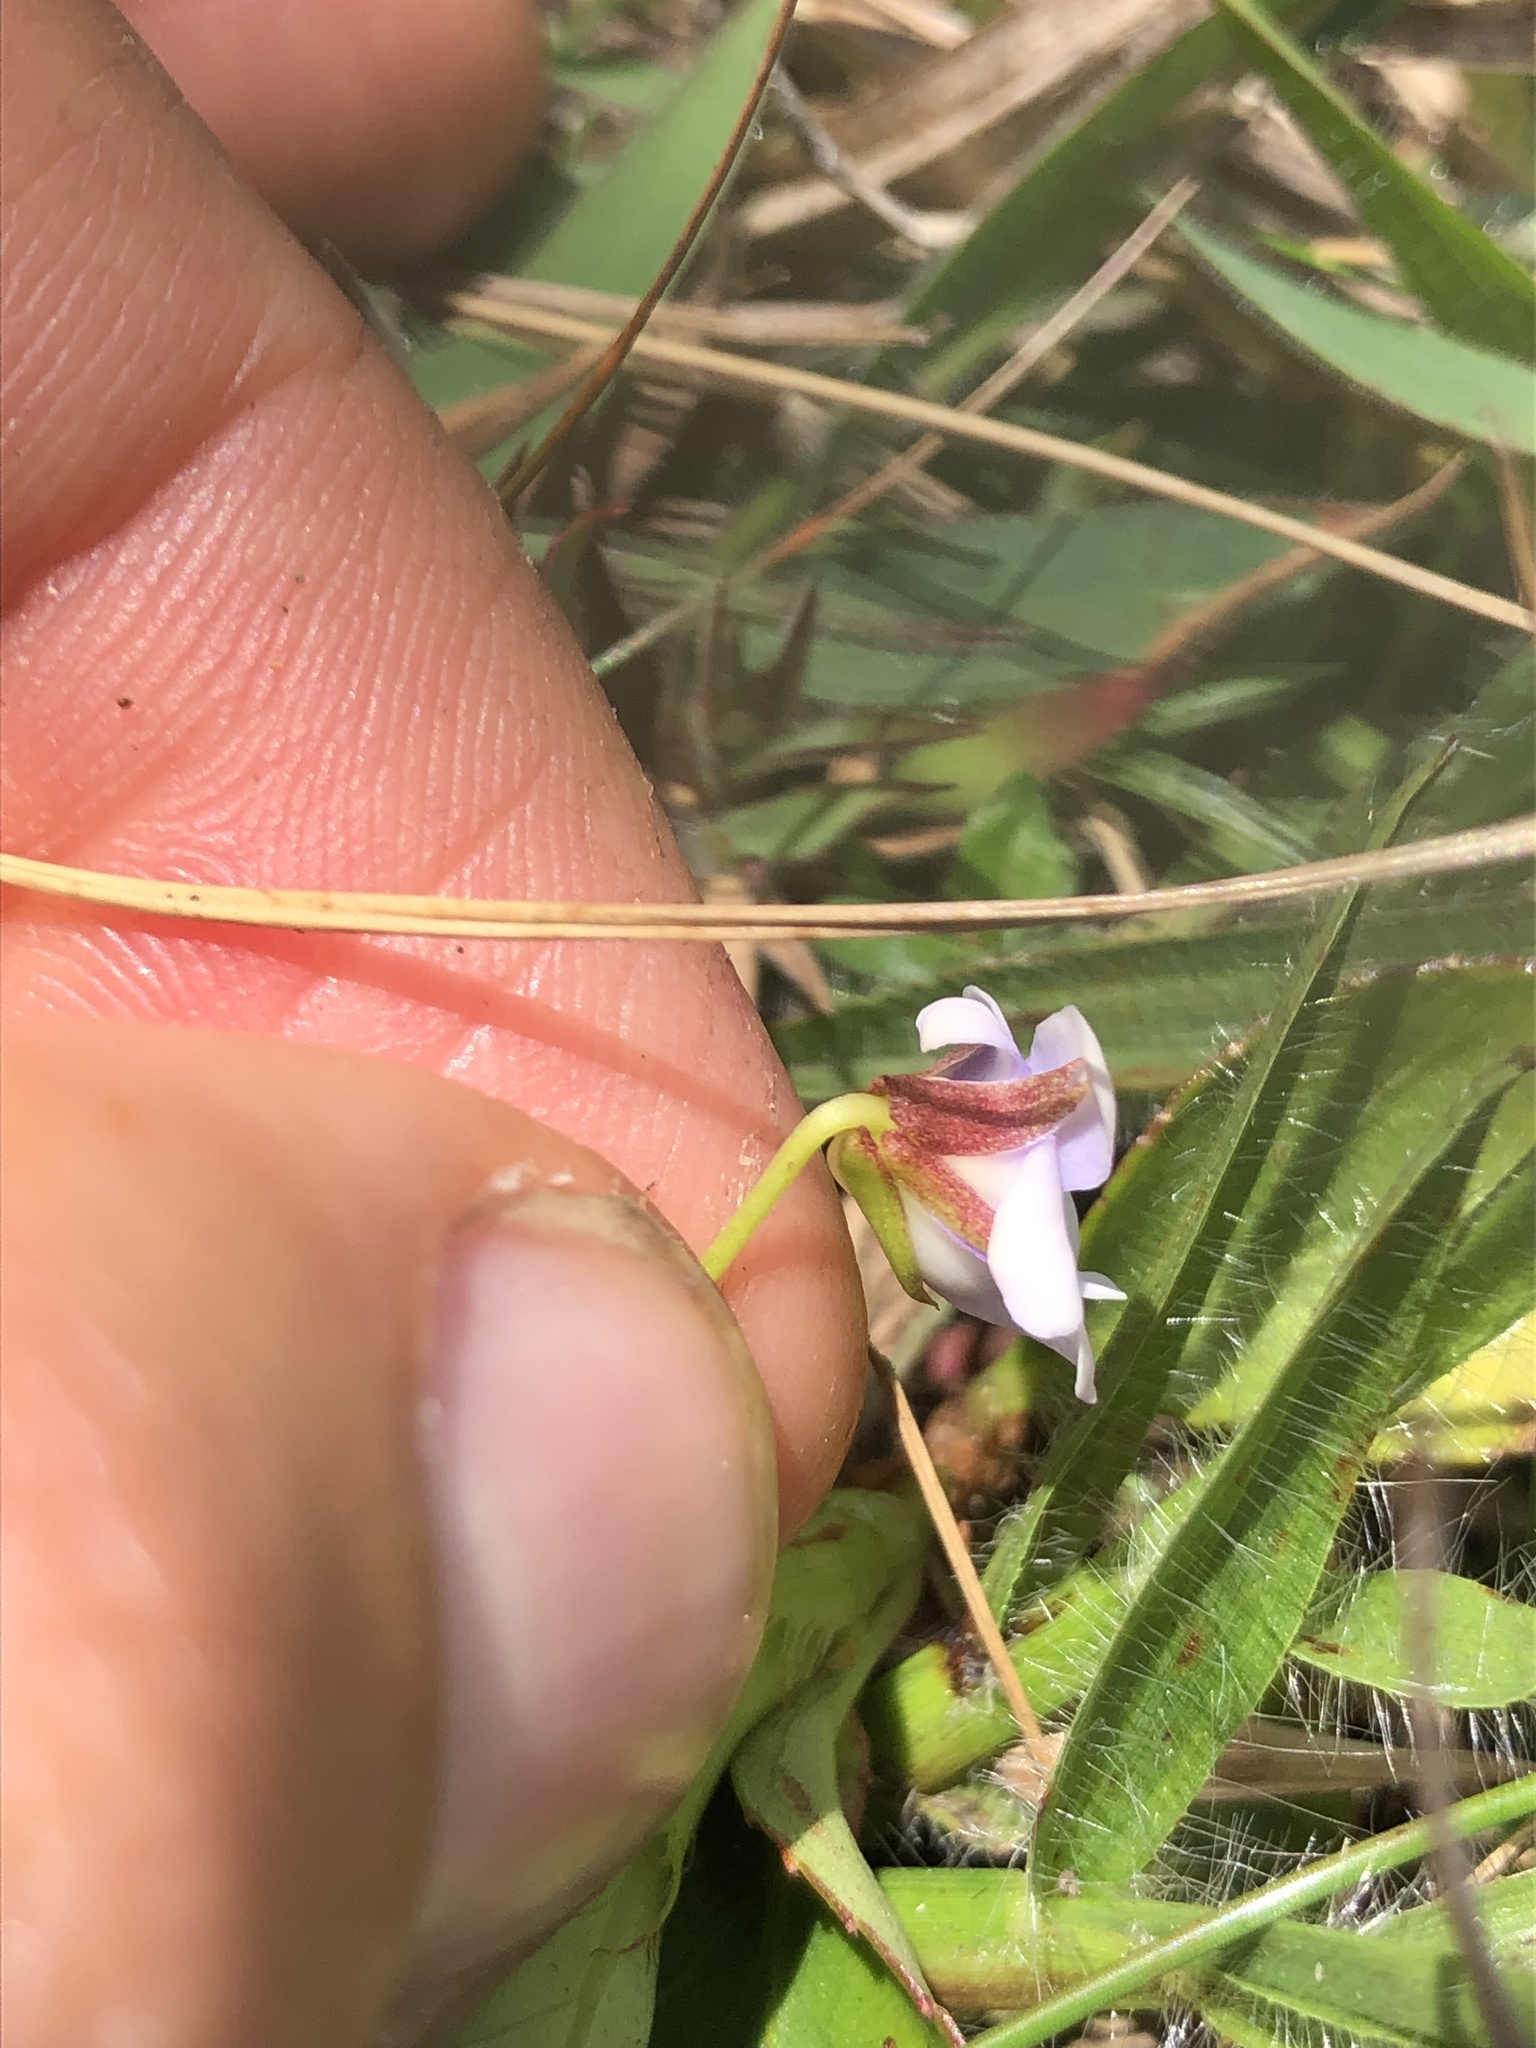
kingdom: Plantae
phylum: Tracheophyta
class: Magnoliopsida
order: Malpighiales
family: Violaceae
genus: Viola
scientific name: Viola stipularis
